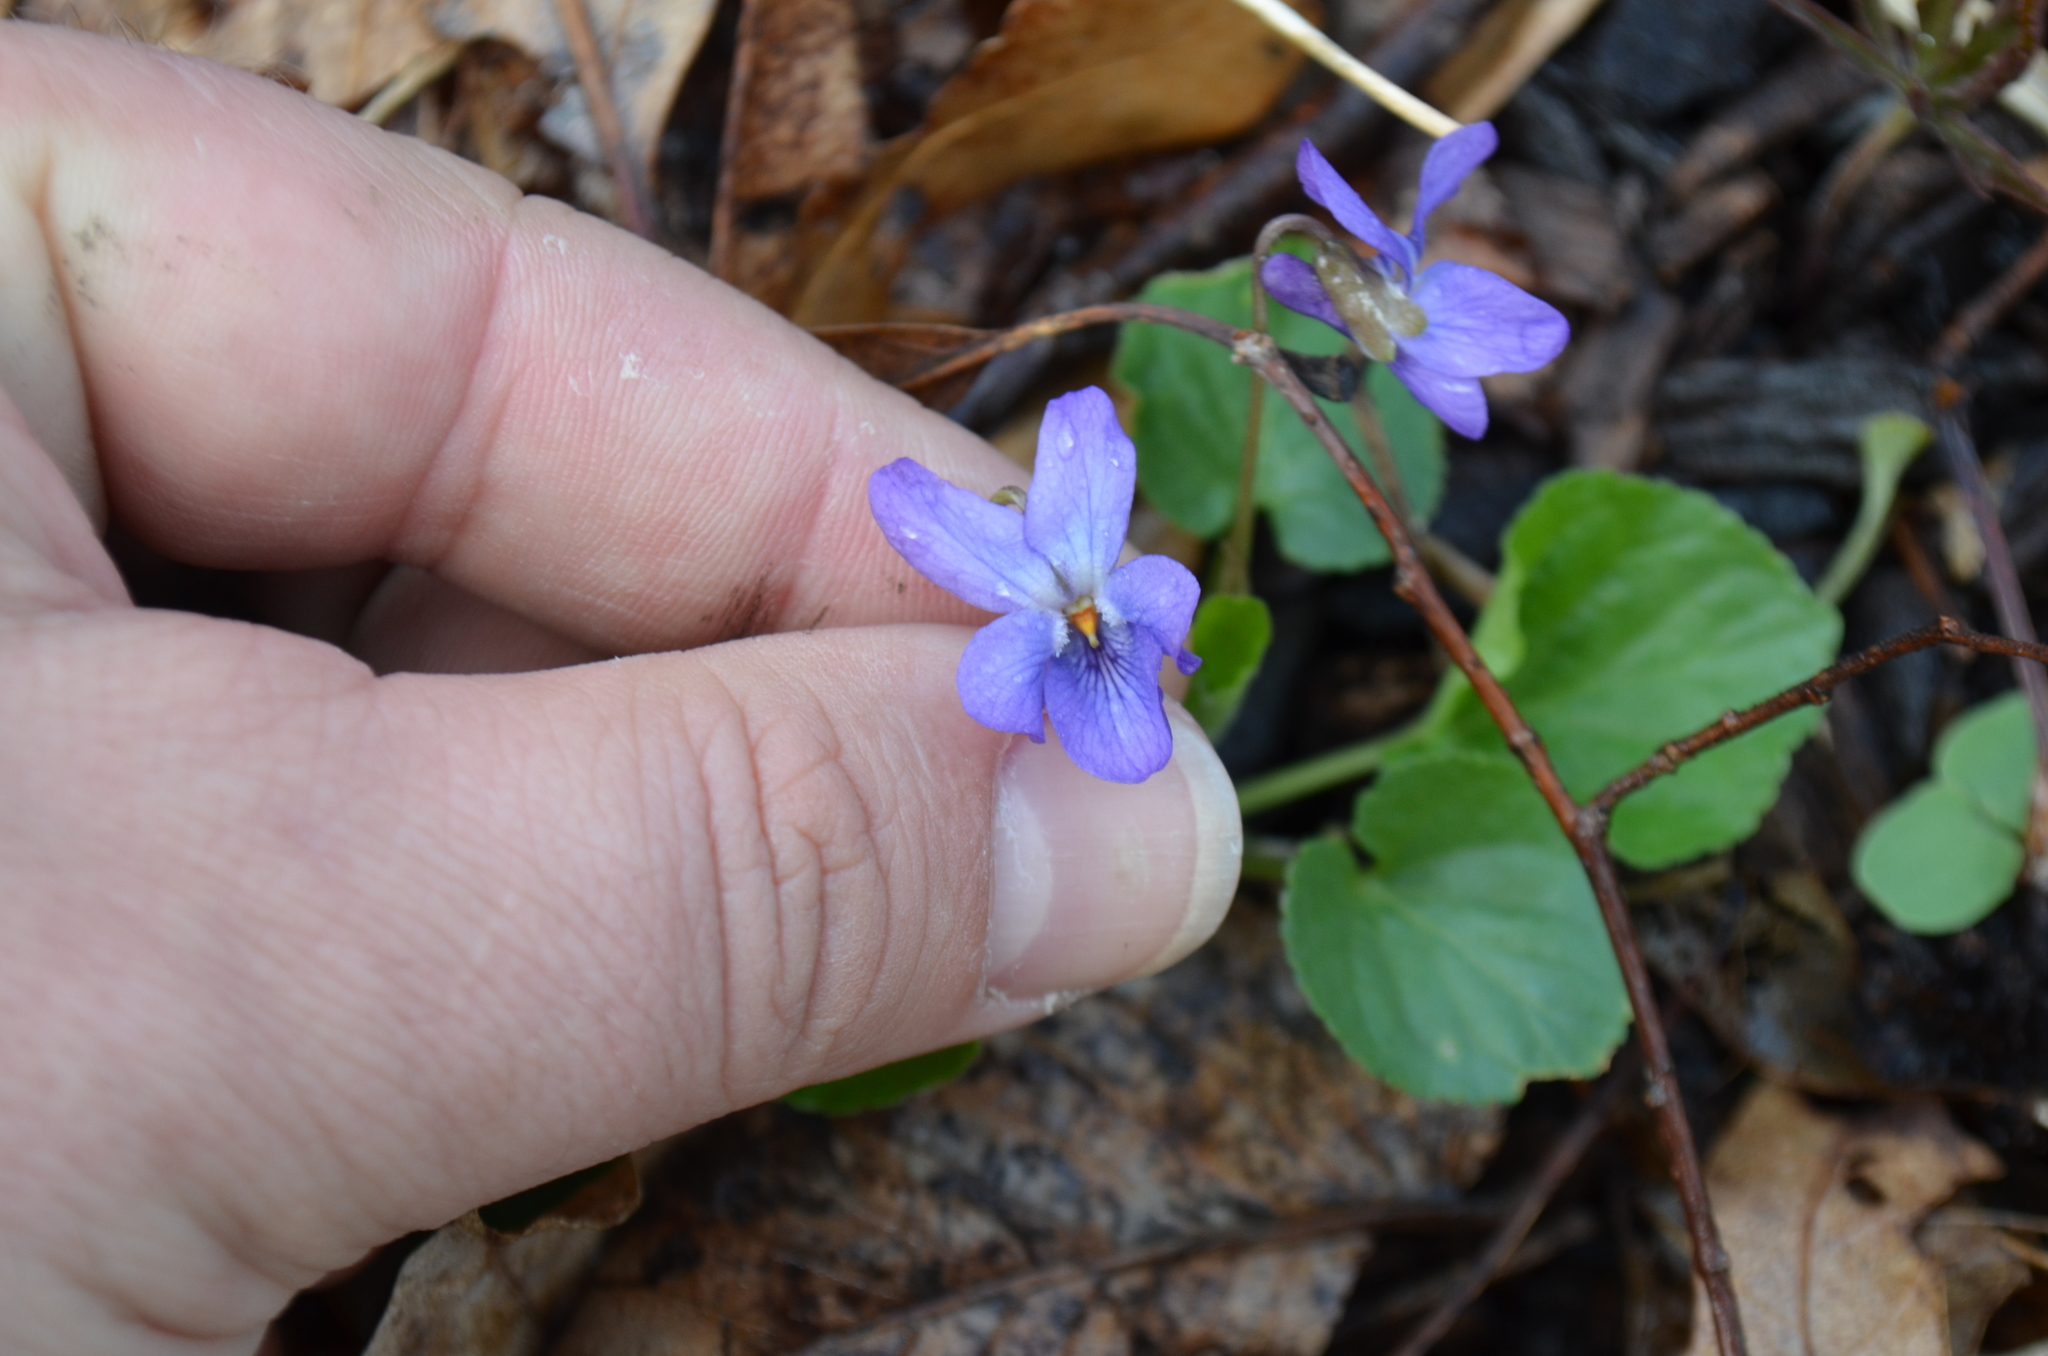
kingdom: Plantae
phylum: Tracheophyta
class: Magnoliopsida
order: Malpighiales
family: Violaceae
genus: Viola
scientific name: Viola odorata
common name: Sweet violet
